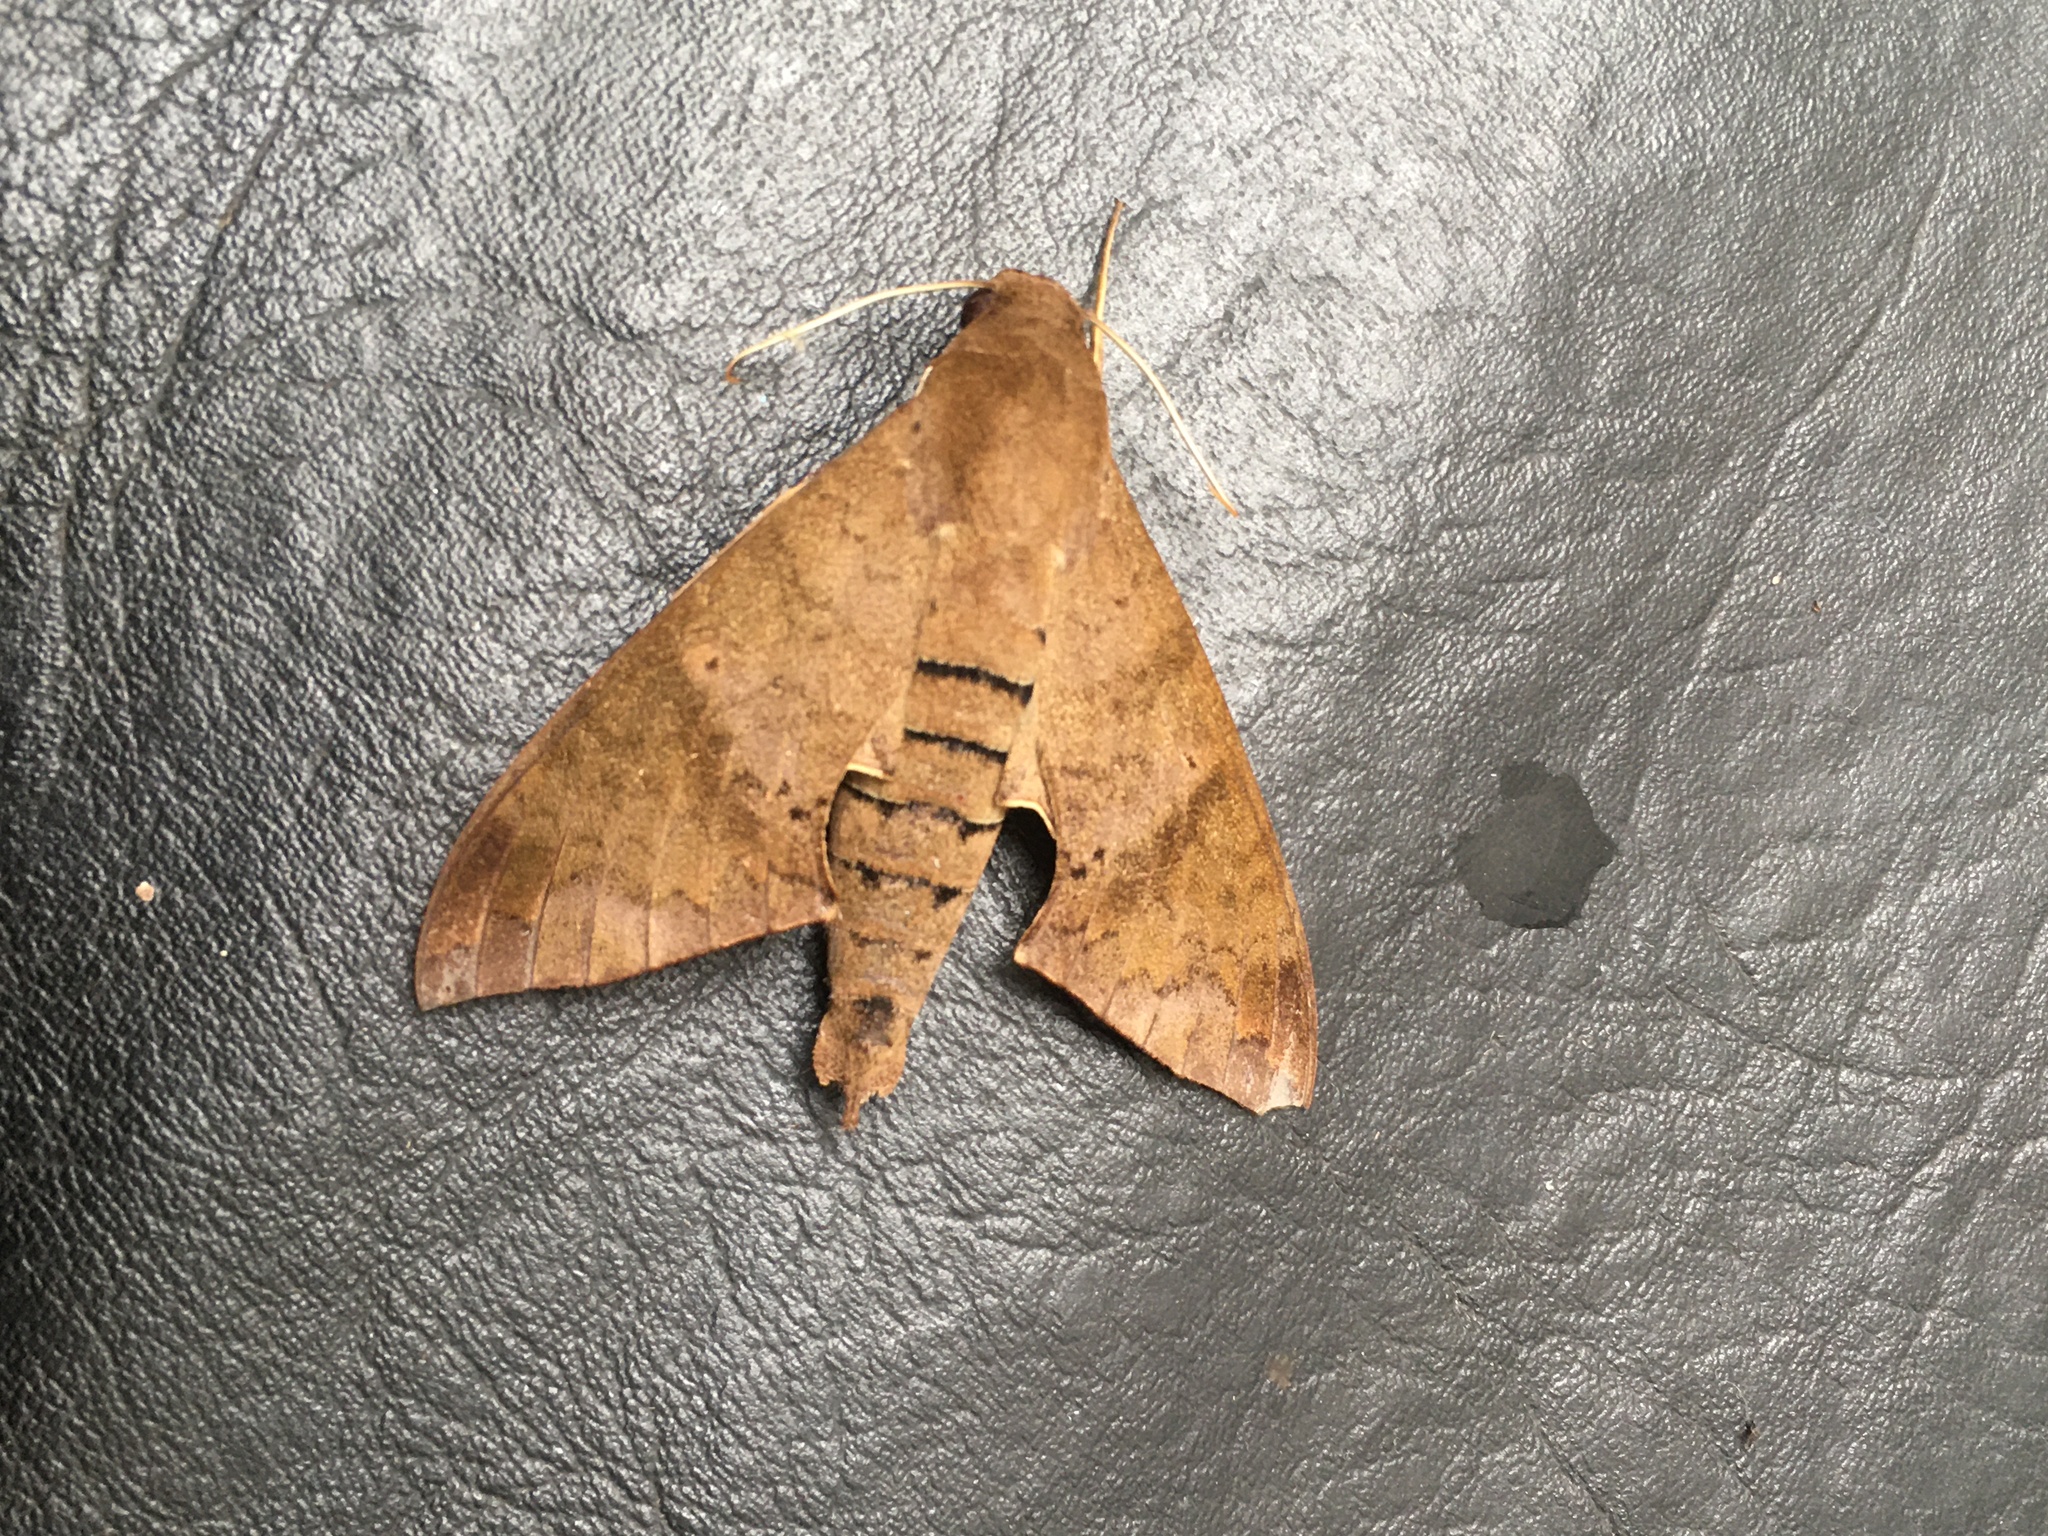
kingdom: Animalia
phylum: Arthropoda
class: Insecta
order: Lepidoptera
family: Sphingidae
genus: Pachylioides
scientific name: Pachylioides resumens
